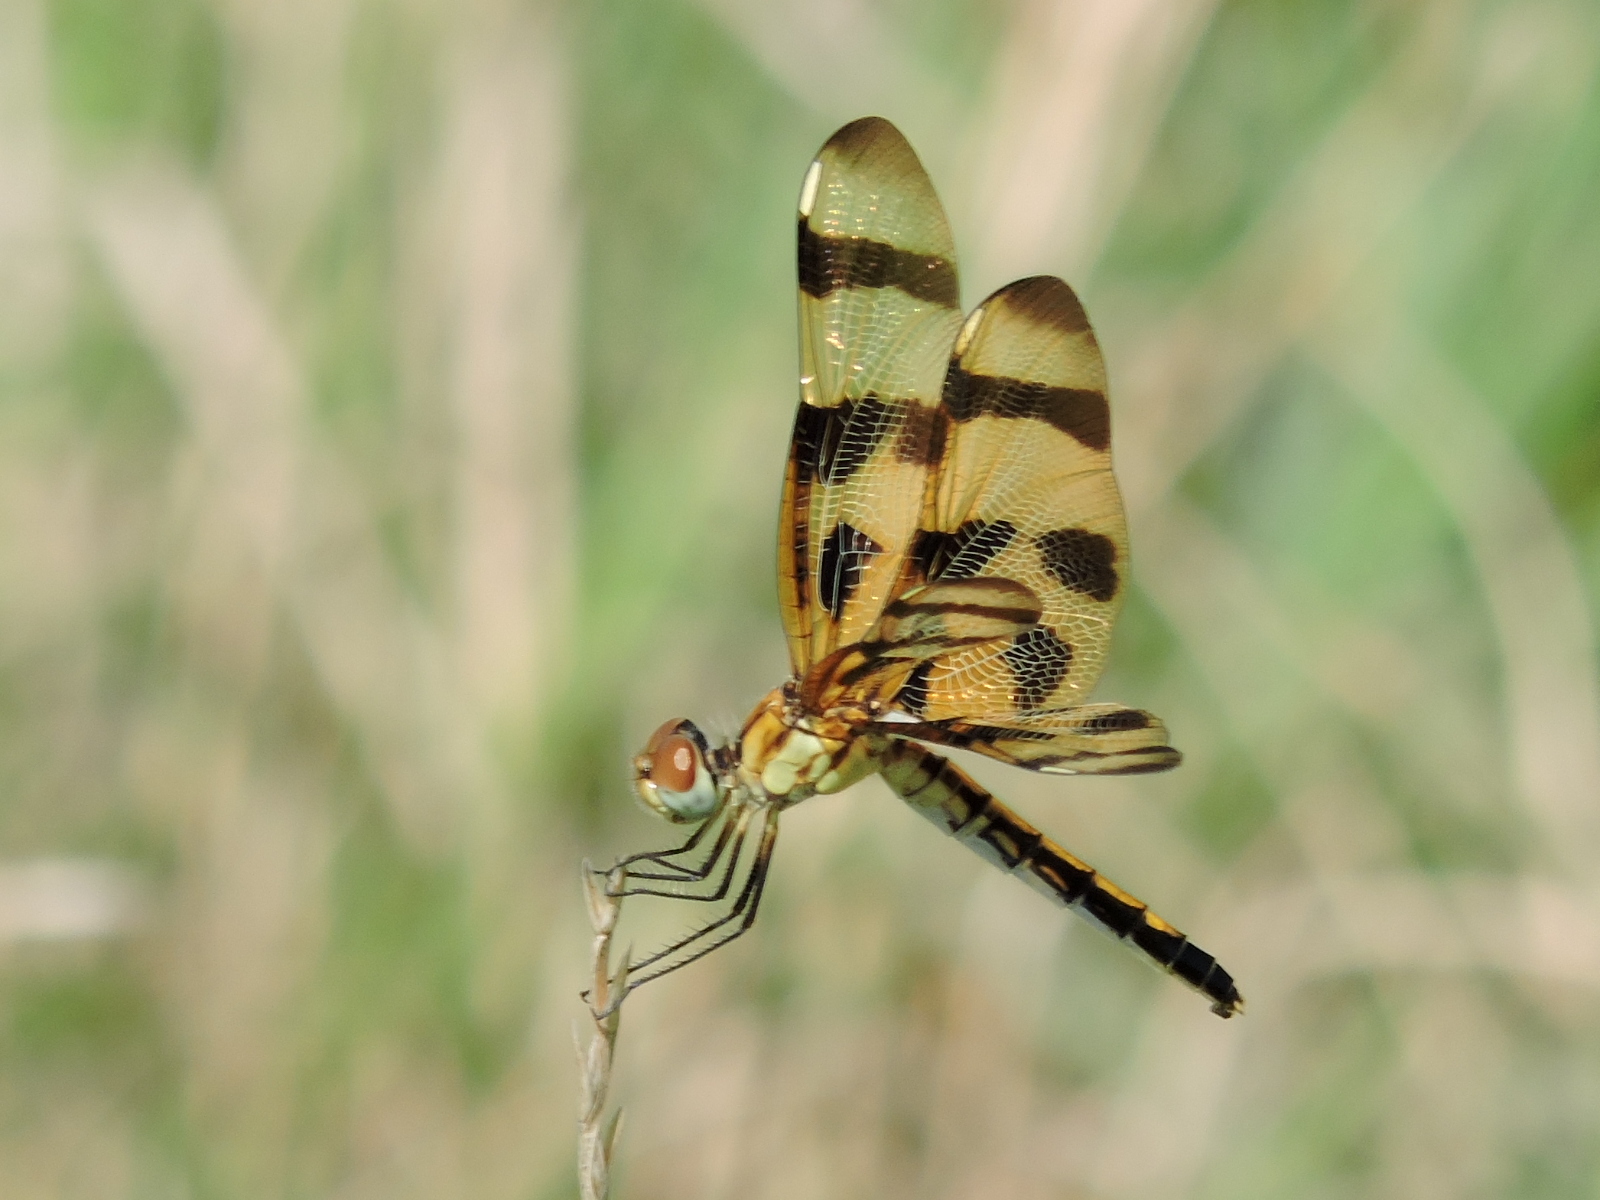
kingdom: Animalia
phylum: Arthropoda
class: Insecta
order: Odonata
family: Libellulidae
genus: Celithemis
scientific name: Celithemis eponina
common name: Halloween pennant
